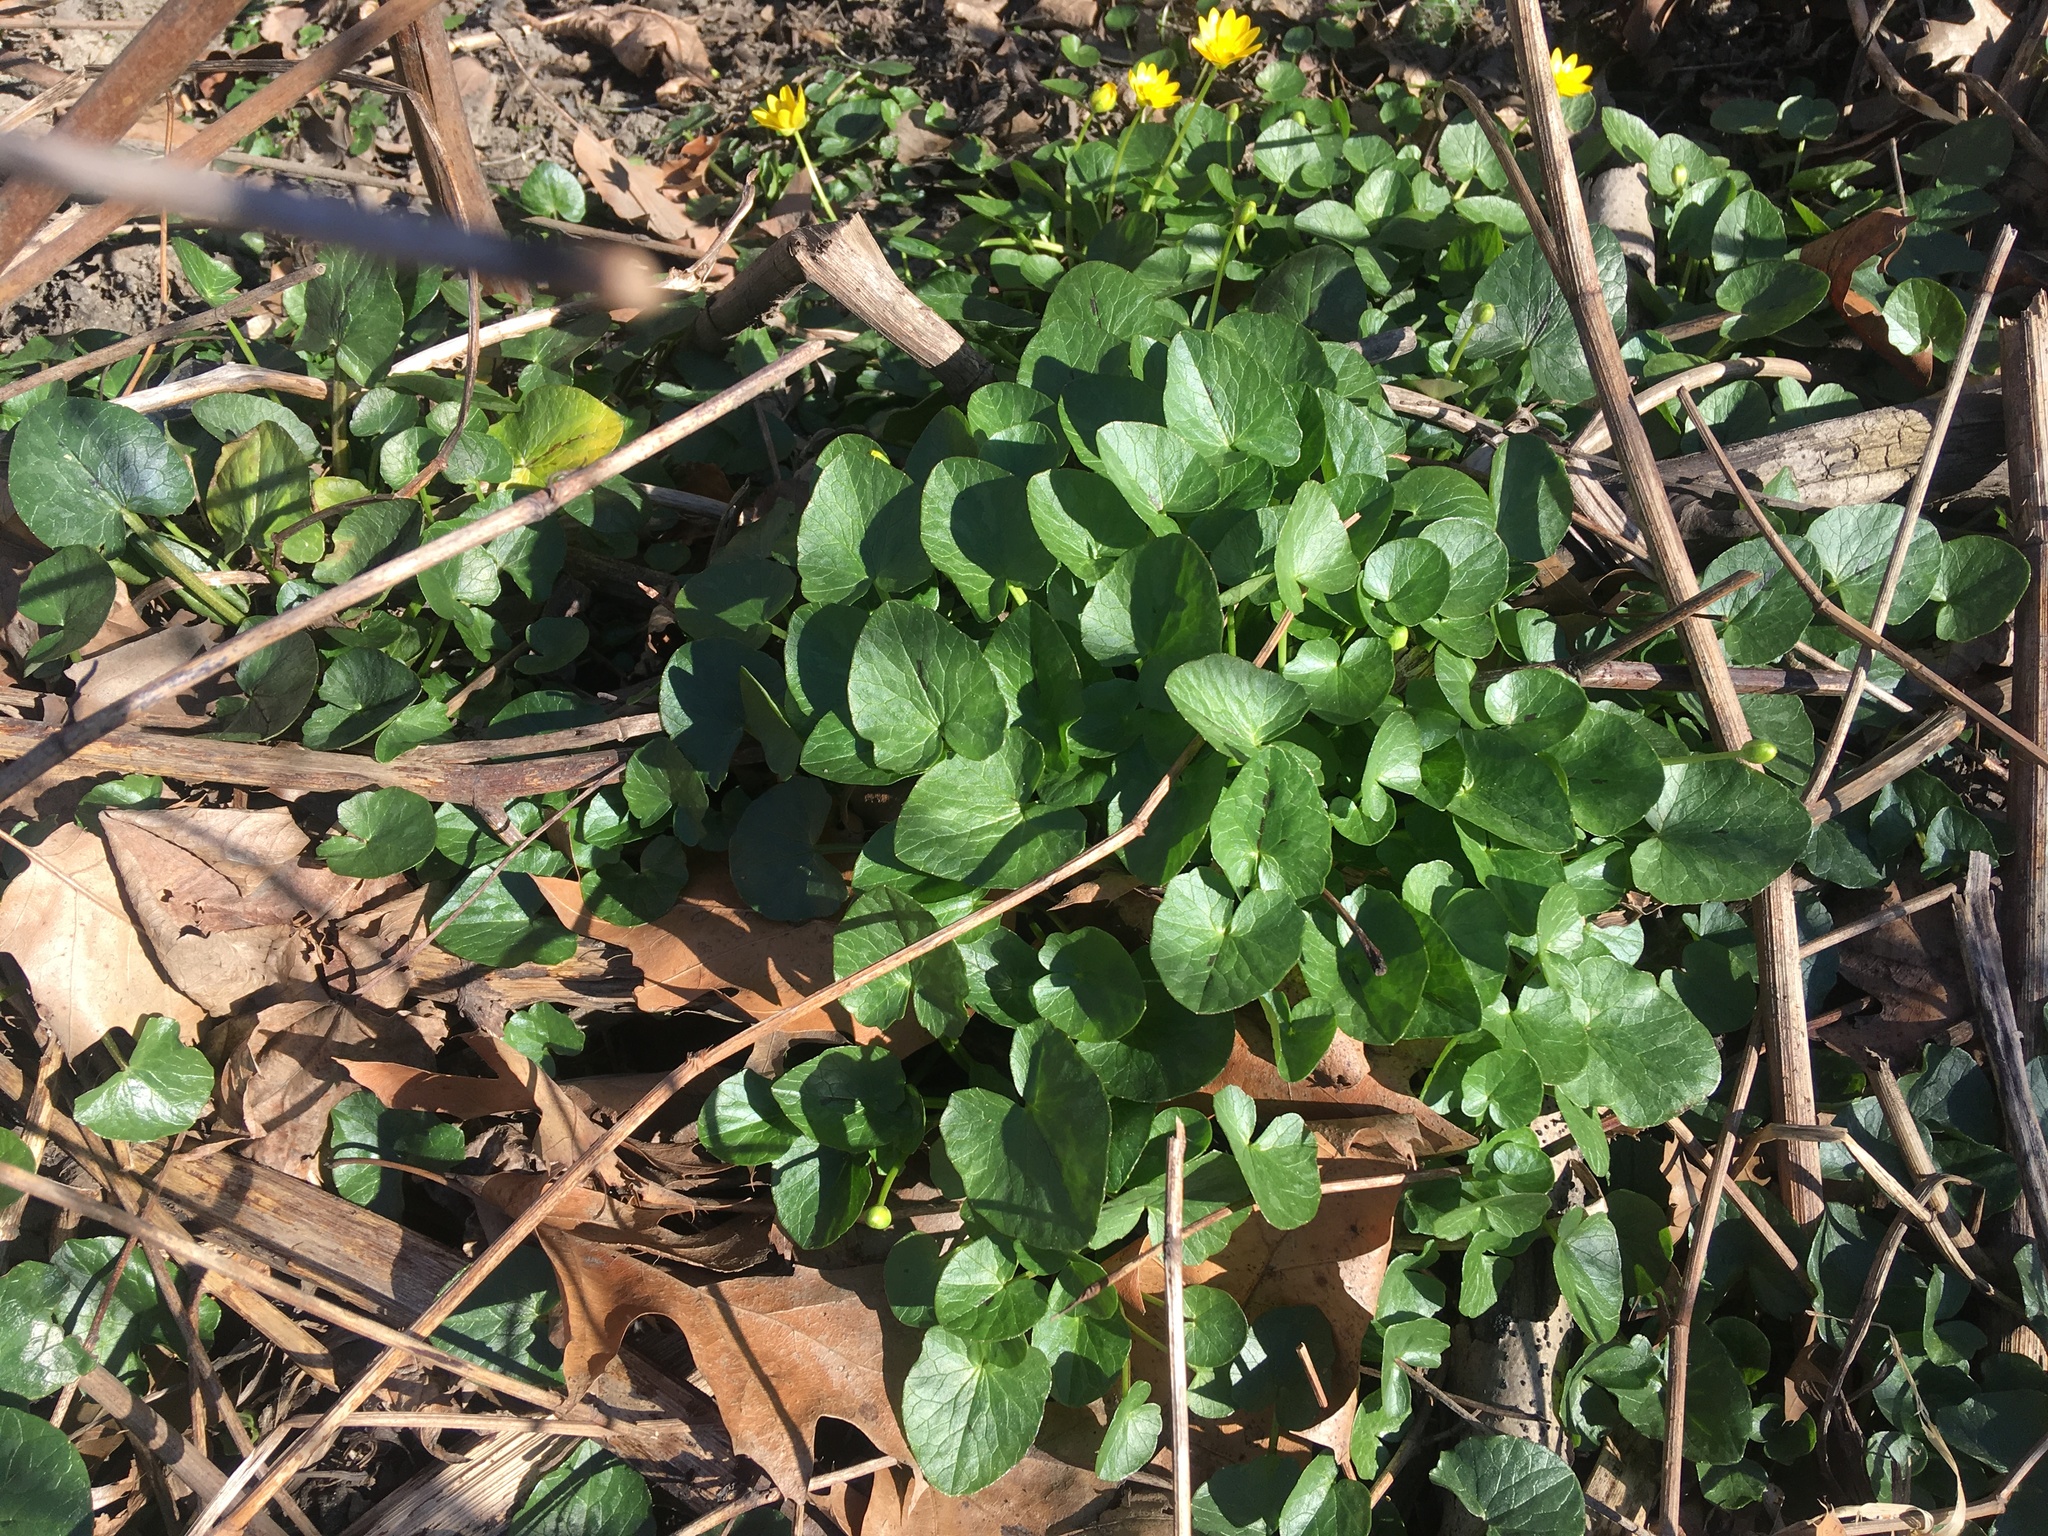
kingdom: Plantae
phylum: Tracheophyta
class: Magnoliopsida
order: Ranunculales
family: Ranunculaceae
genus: Ficaria
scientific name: Ficaria verna
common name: Lesser celandine
